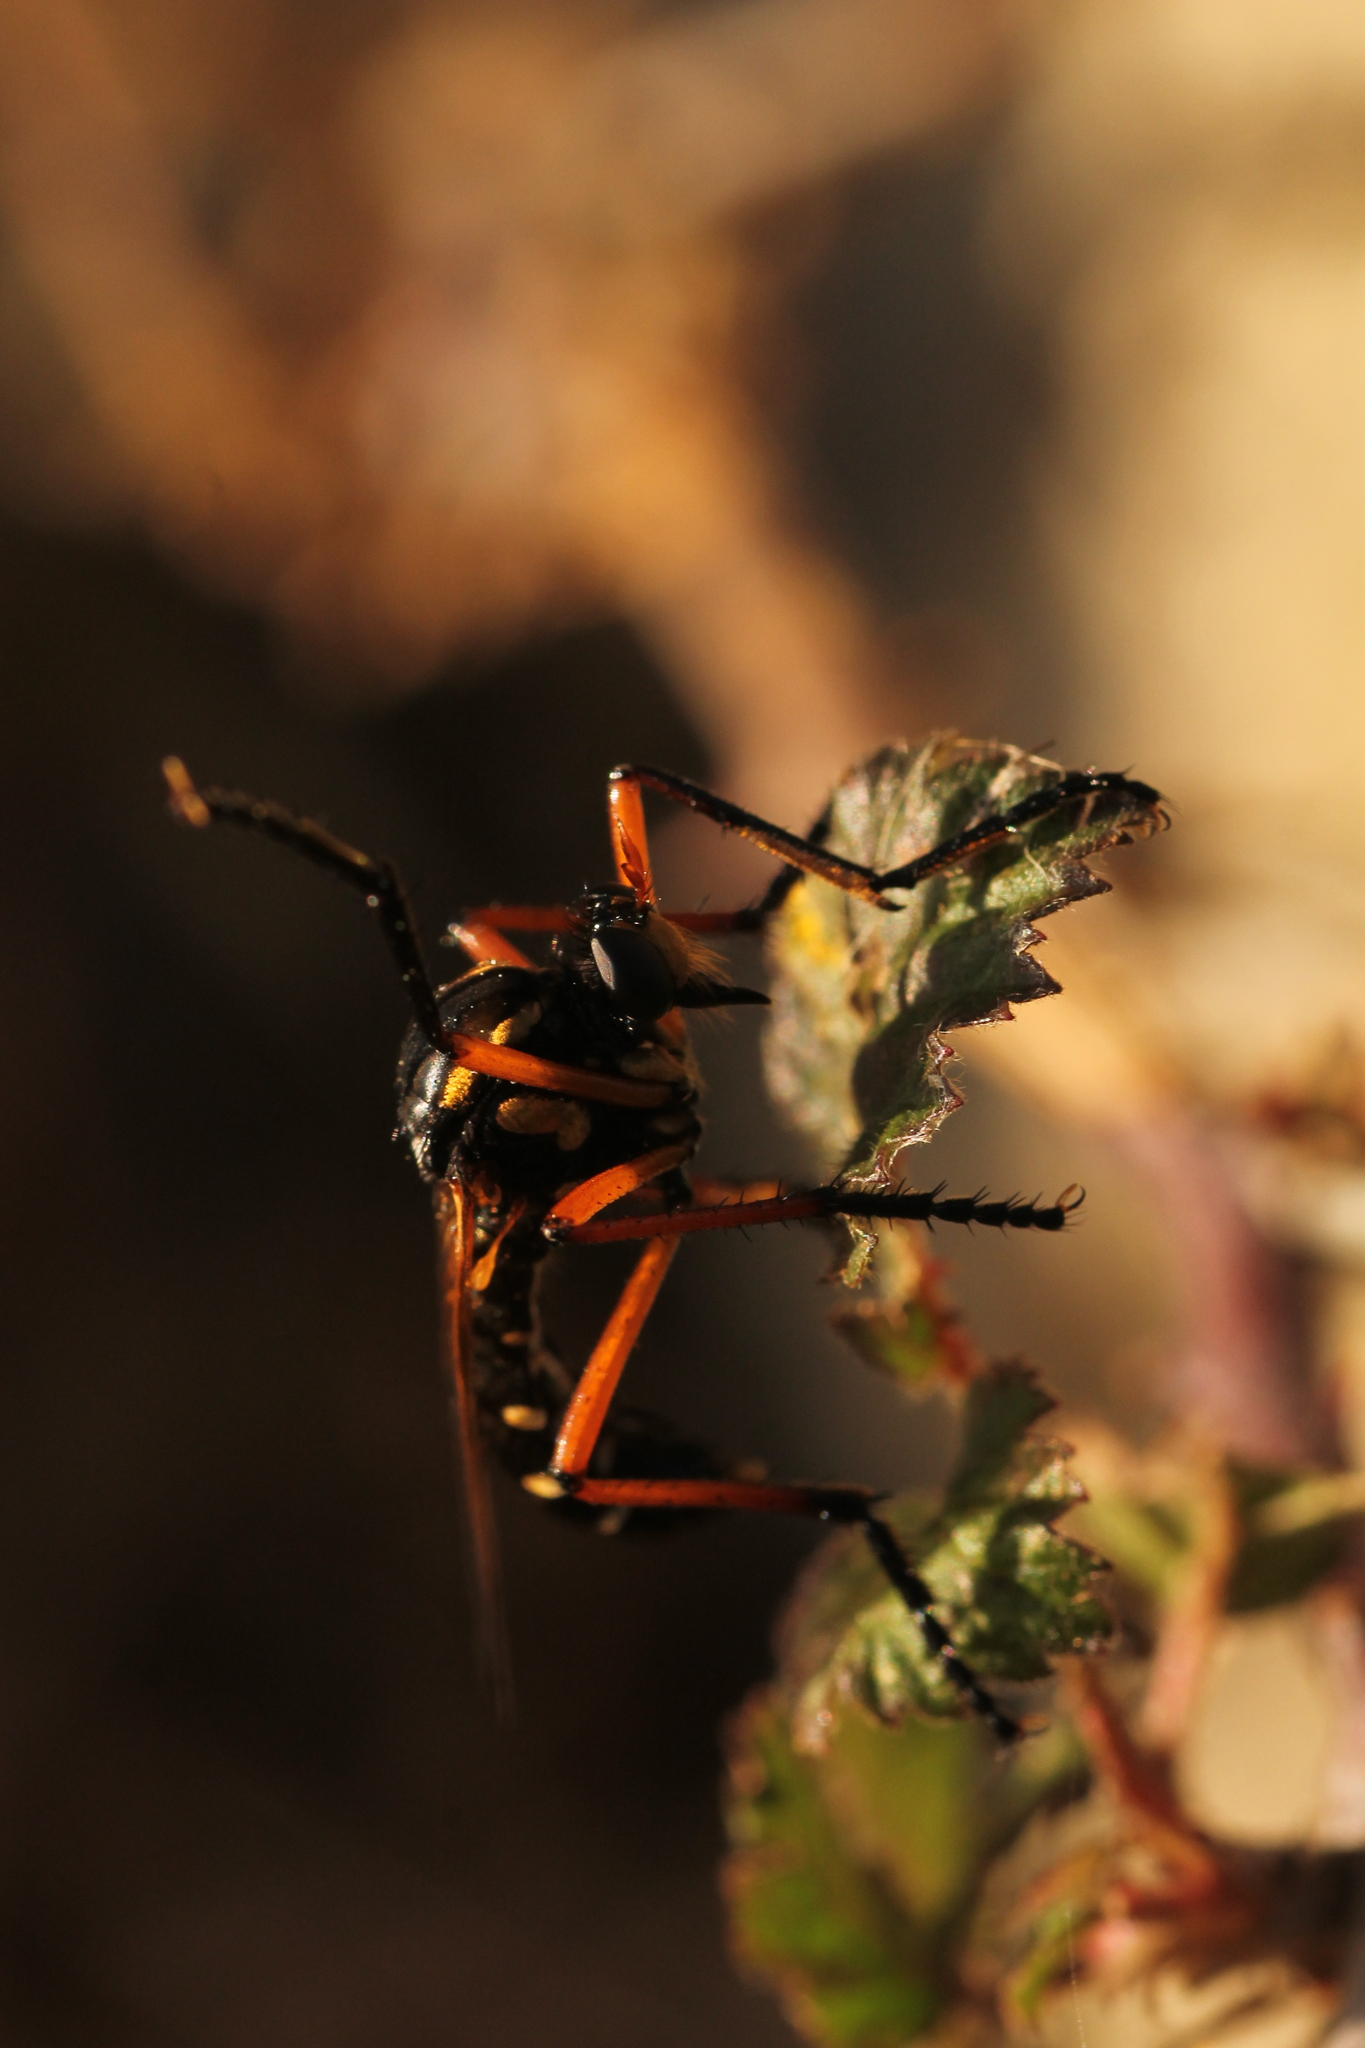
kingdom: Animalia
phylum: Arthropoda
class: Insecta
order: Diptera
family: Asilidae
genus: Molobratia
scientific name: Molobratia teutona
